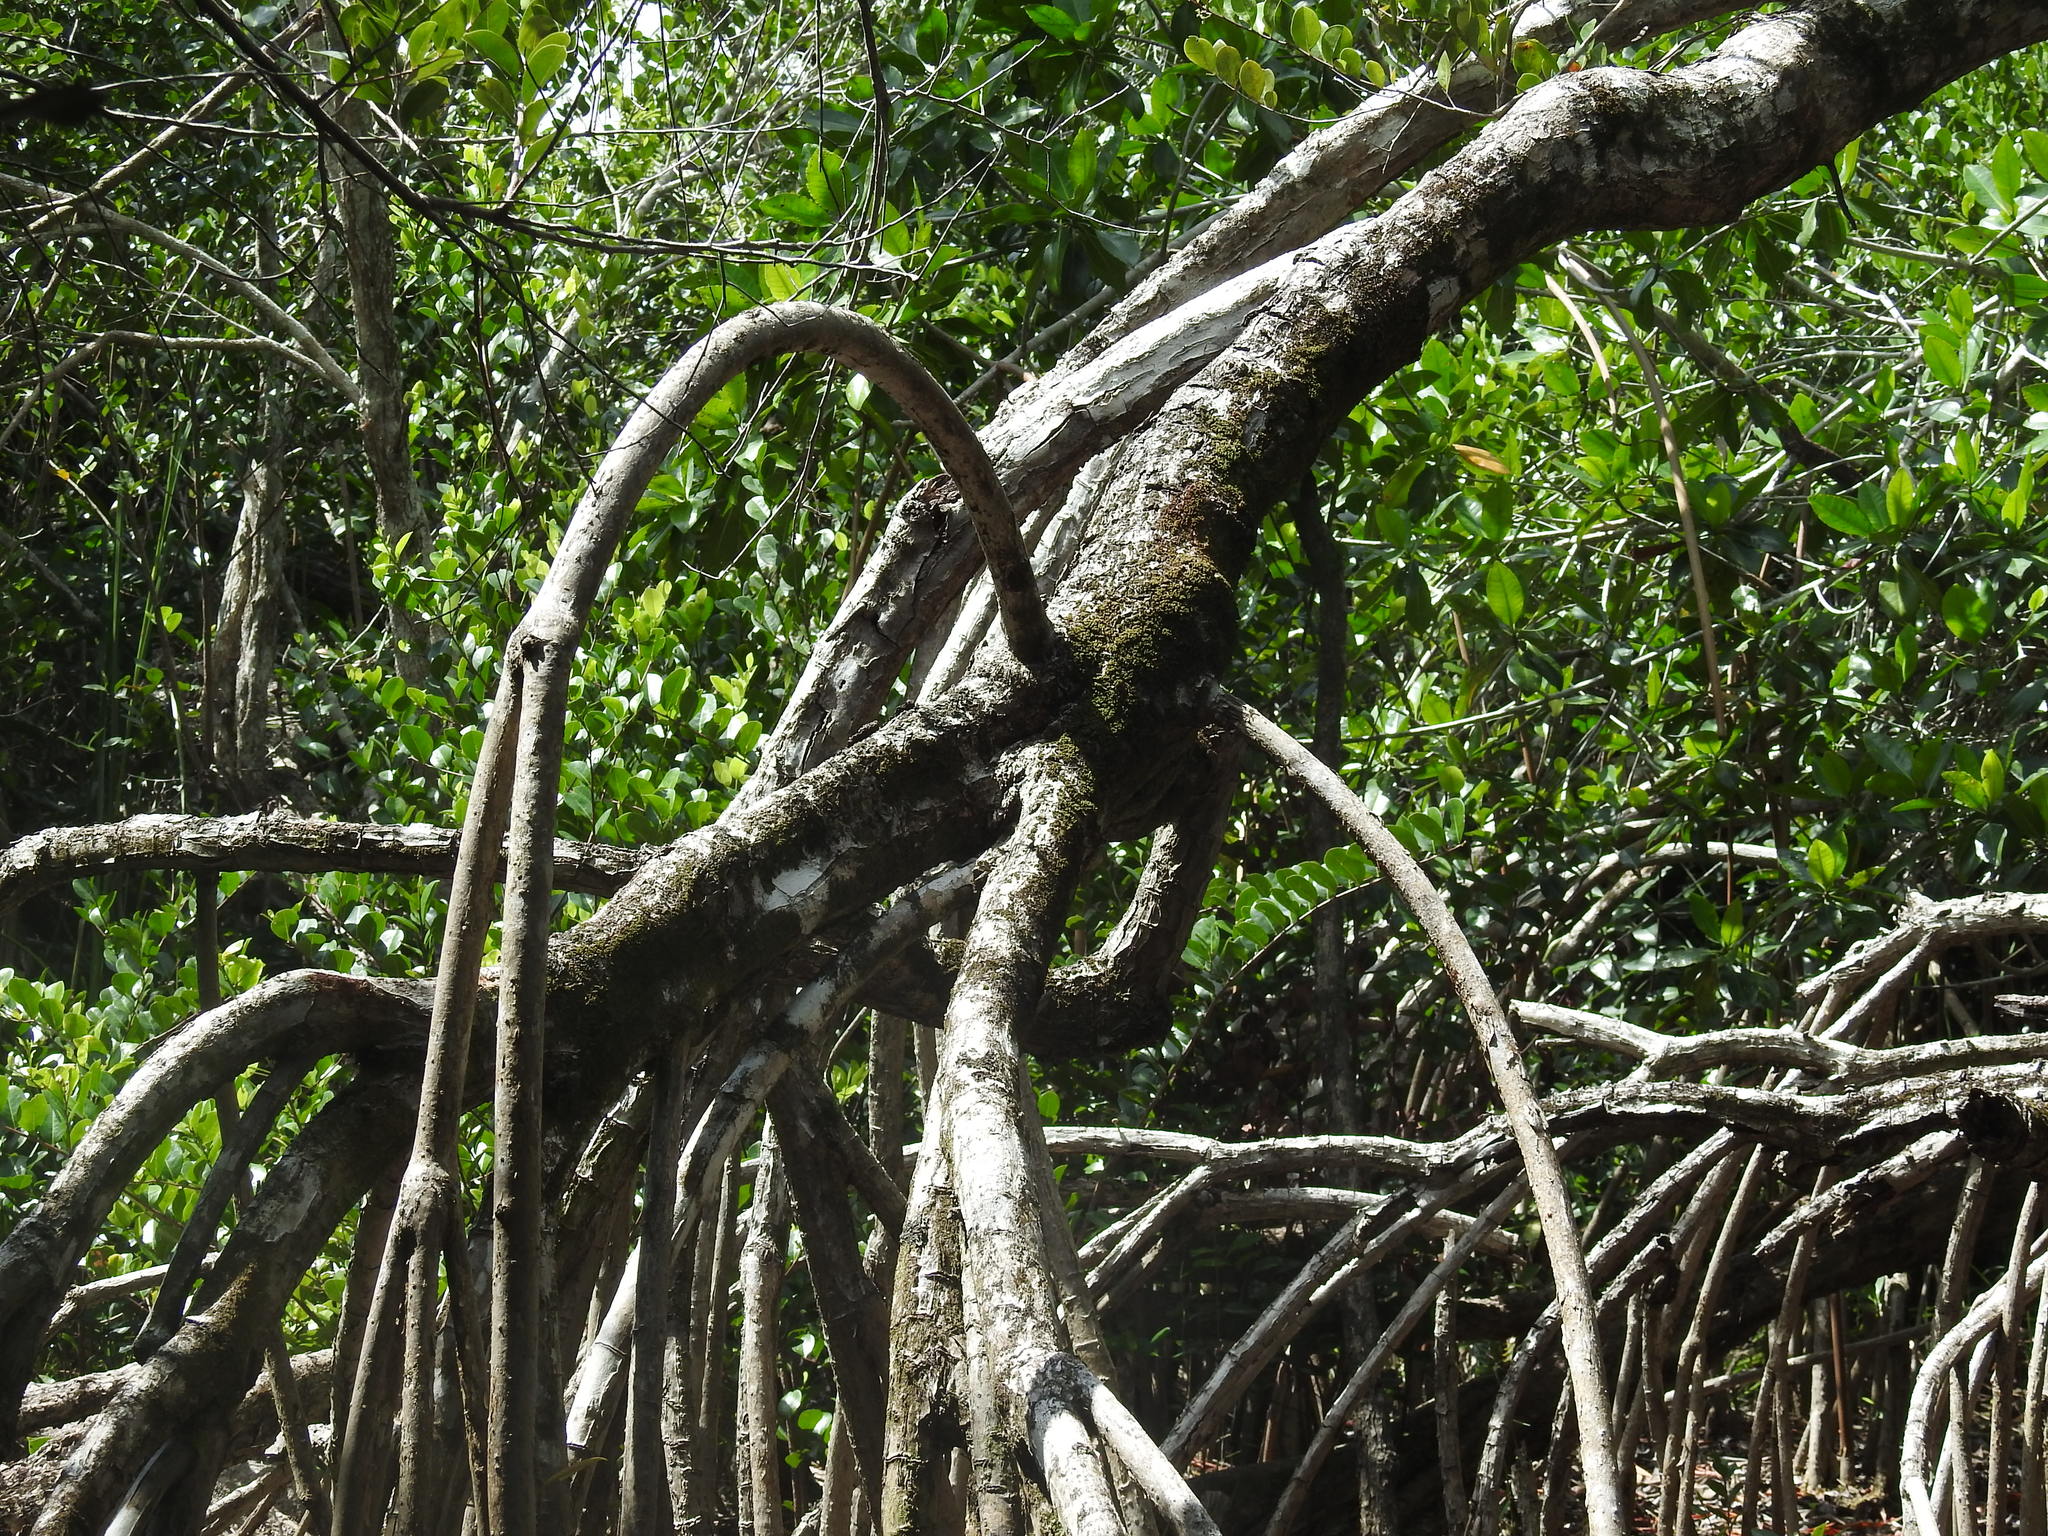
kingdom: Plantae
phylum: Tracheophyta
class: Magnoliopsida
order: Malpighiales
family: Rhizophoraceae
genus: Rhizophora
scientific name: Rhizophora mangle
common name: Red mangrove
